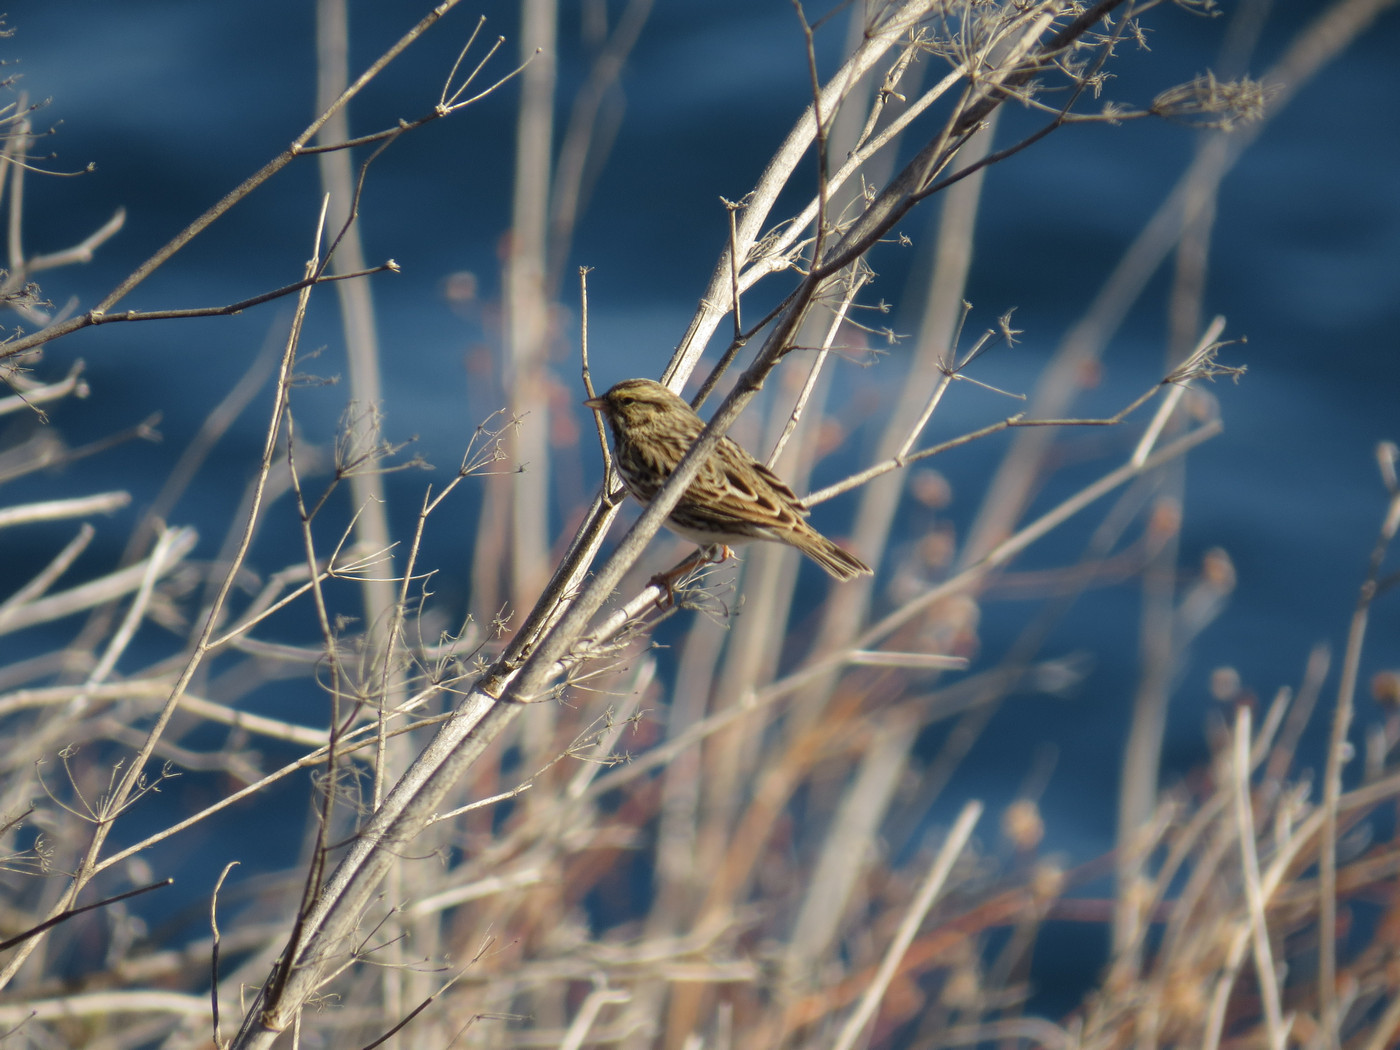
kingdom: Animalia
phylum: Chordata
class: Aves
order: Passeriformes
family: Passerellidae
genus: Passerculus
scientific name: Passerculus sandwichensis
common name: Savannah sparrow
